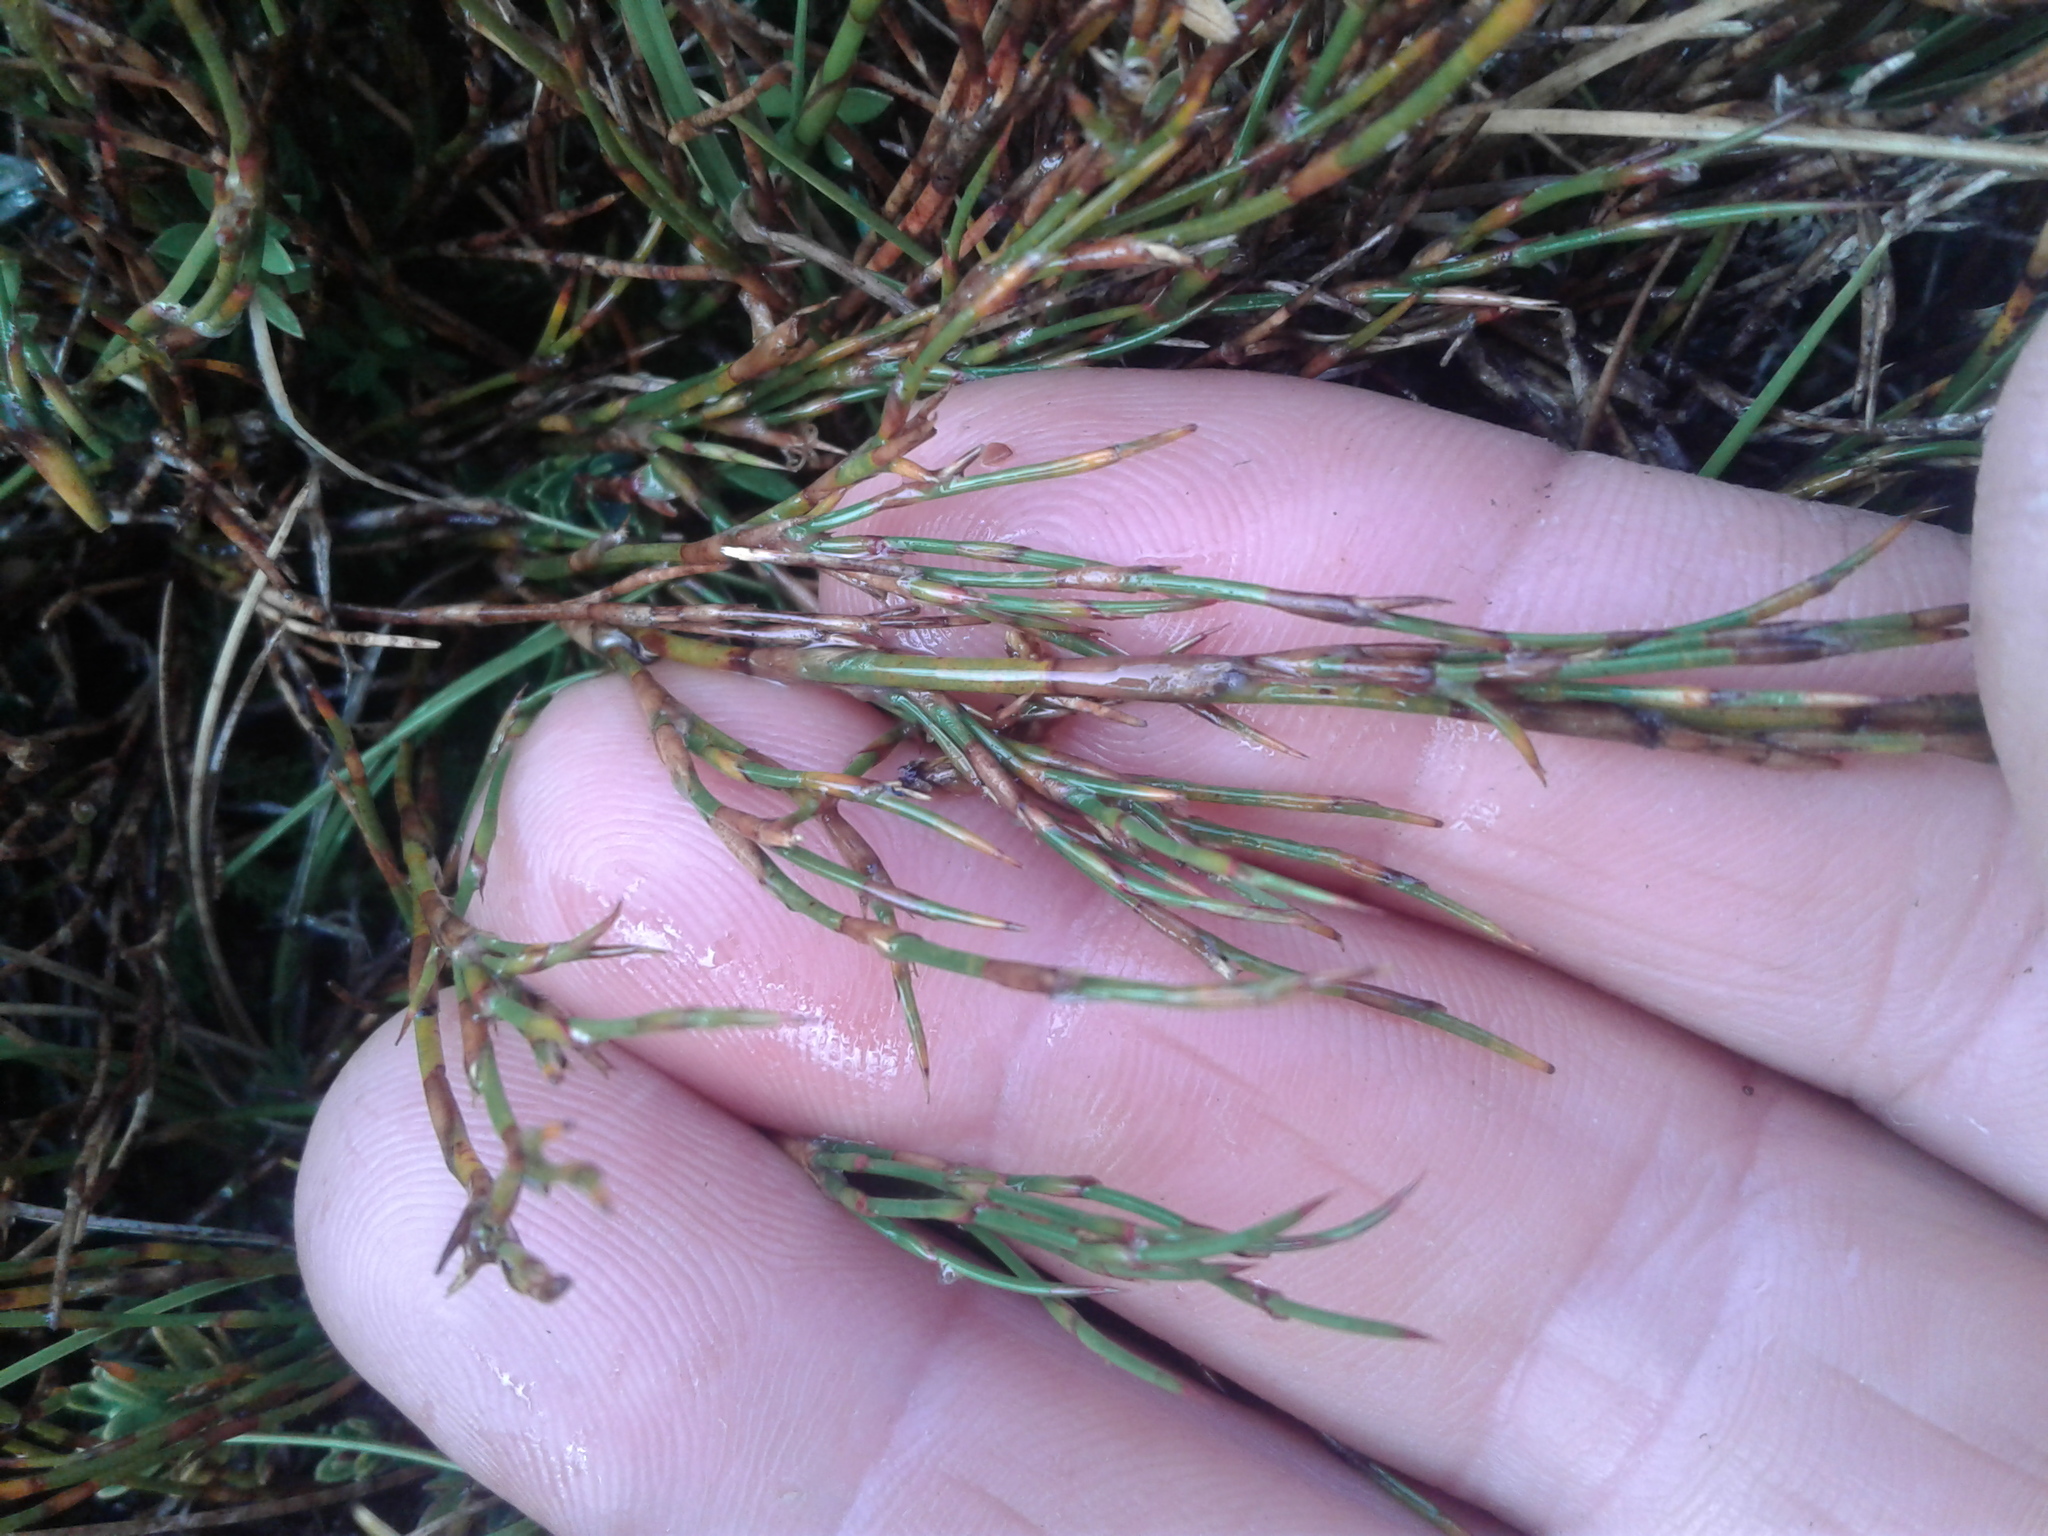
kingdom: Plantae
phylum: Tracheophyta
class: Liliopsida
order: Poales
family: Restionaceae
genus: Empodisma
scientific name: Empodisma minus
